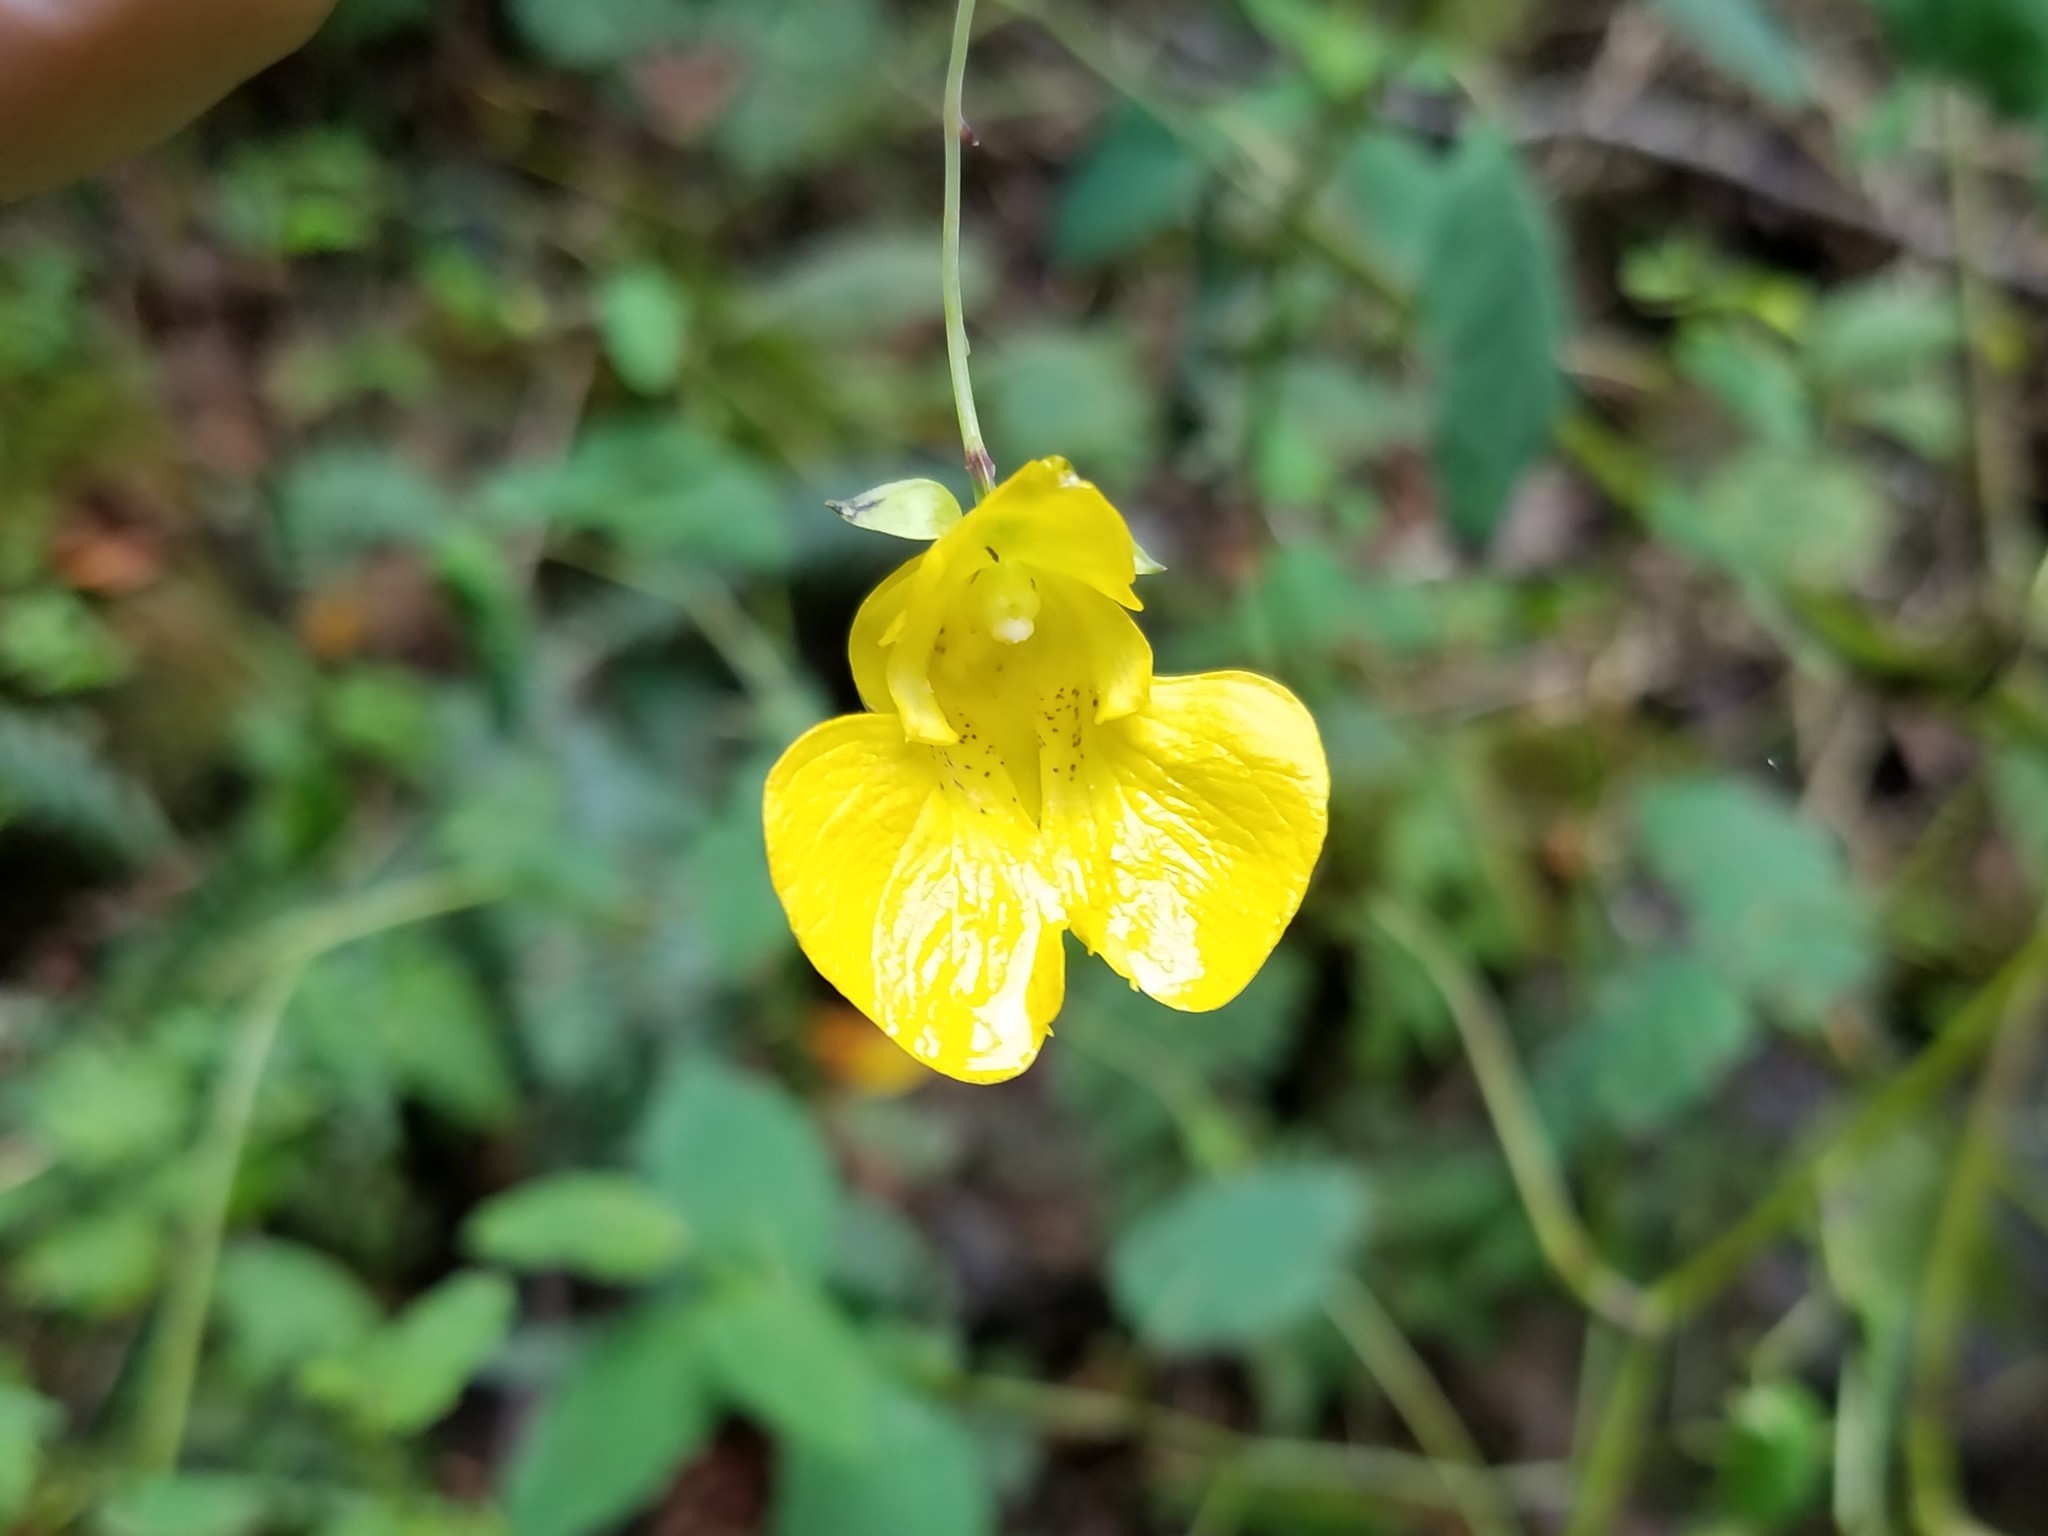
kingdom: Plantae
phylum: Tracheophyta
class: Magnoliopsida
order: Ericales
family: Balsaminaceae
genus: Impatiens
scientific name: Impatiens pallida
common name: Pale snapweed
